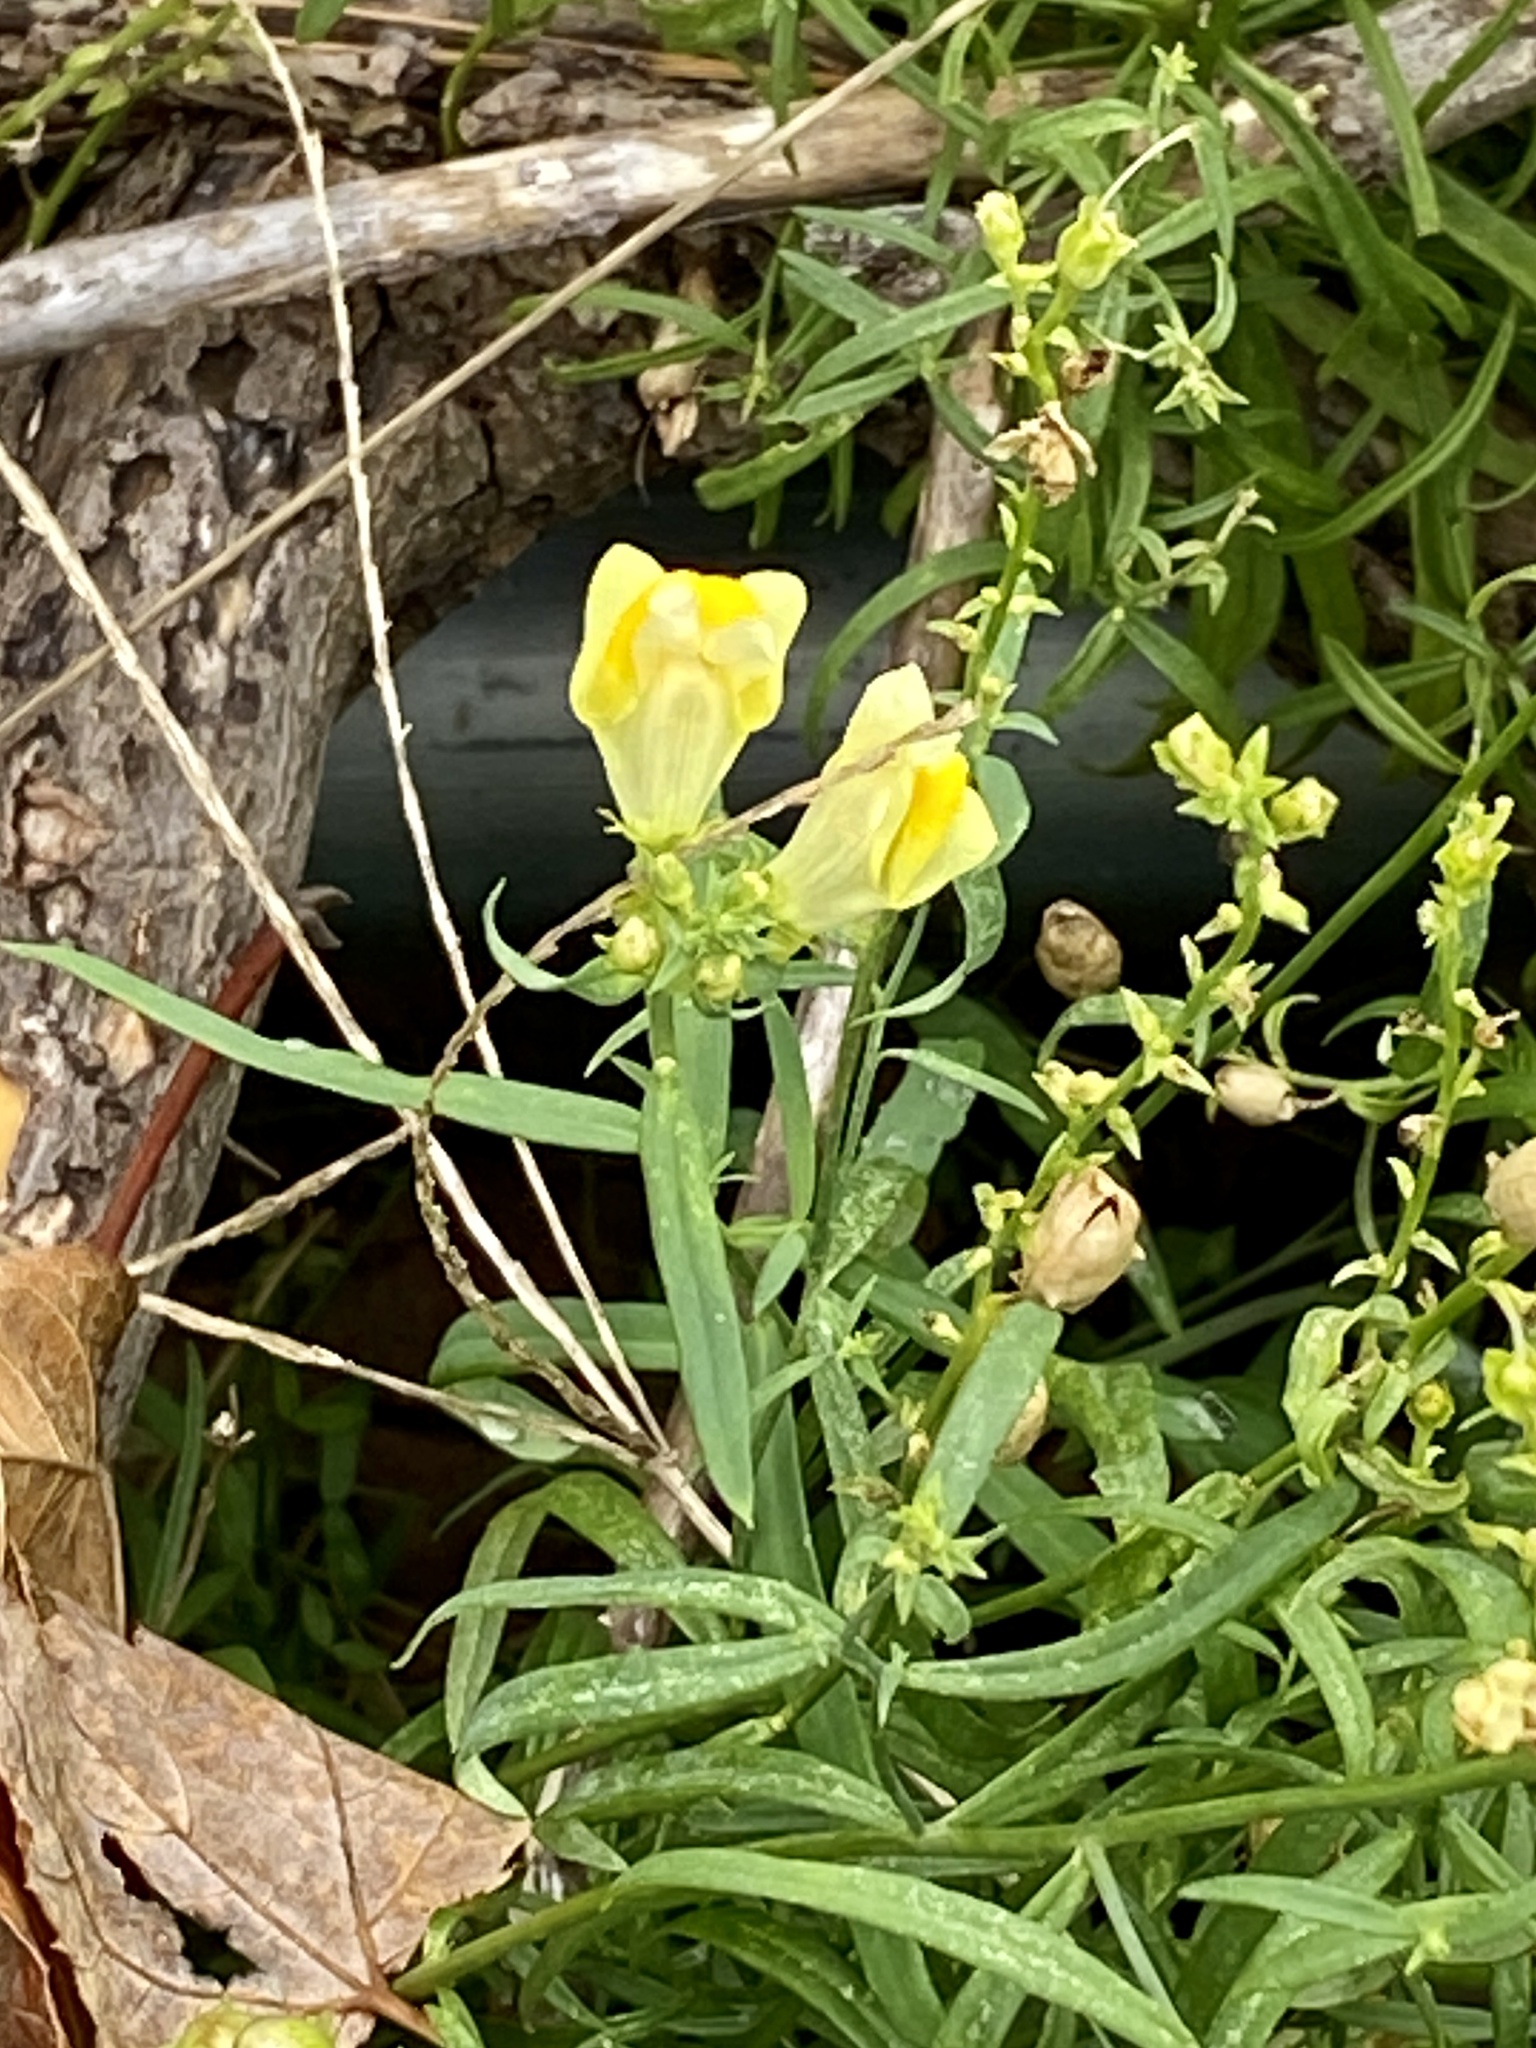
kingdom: Plantae
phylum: Tracheophyta
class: Magnoliopsida
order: Lamiales
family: Plantaginaceae
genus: Linaria
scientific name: Linaria vulgaris
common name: Butter and eggs
